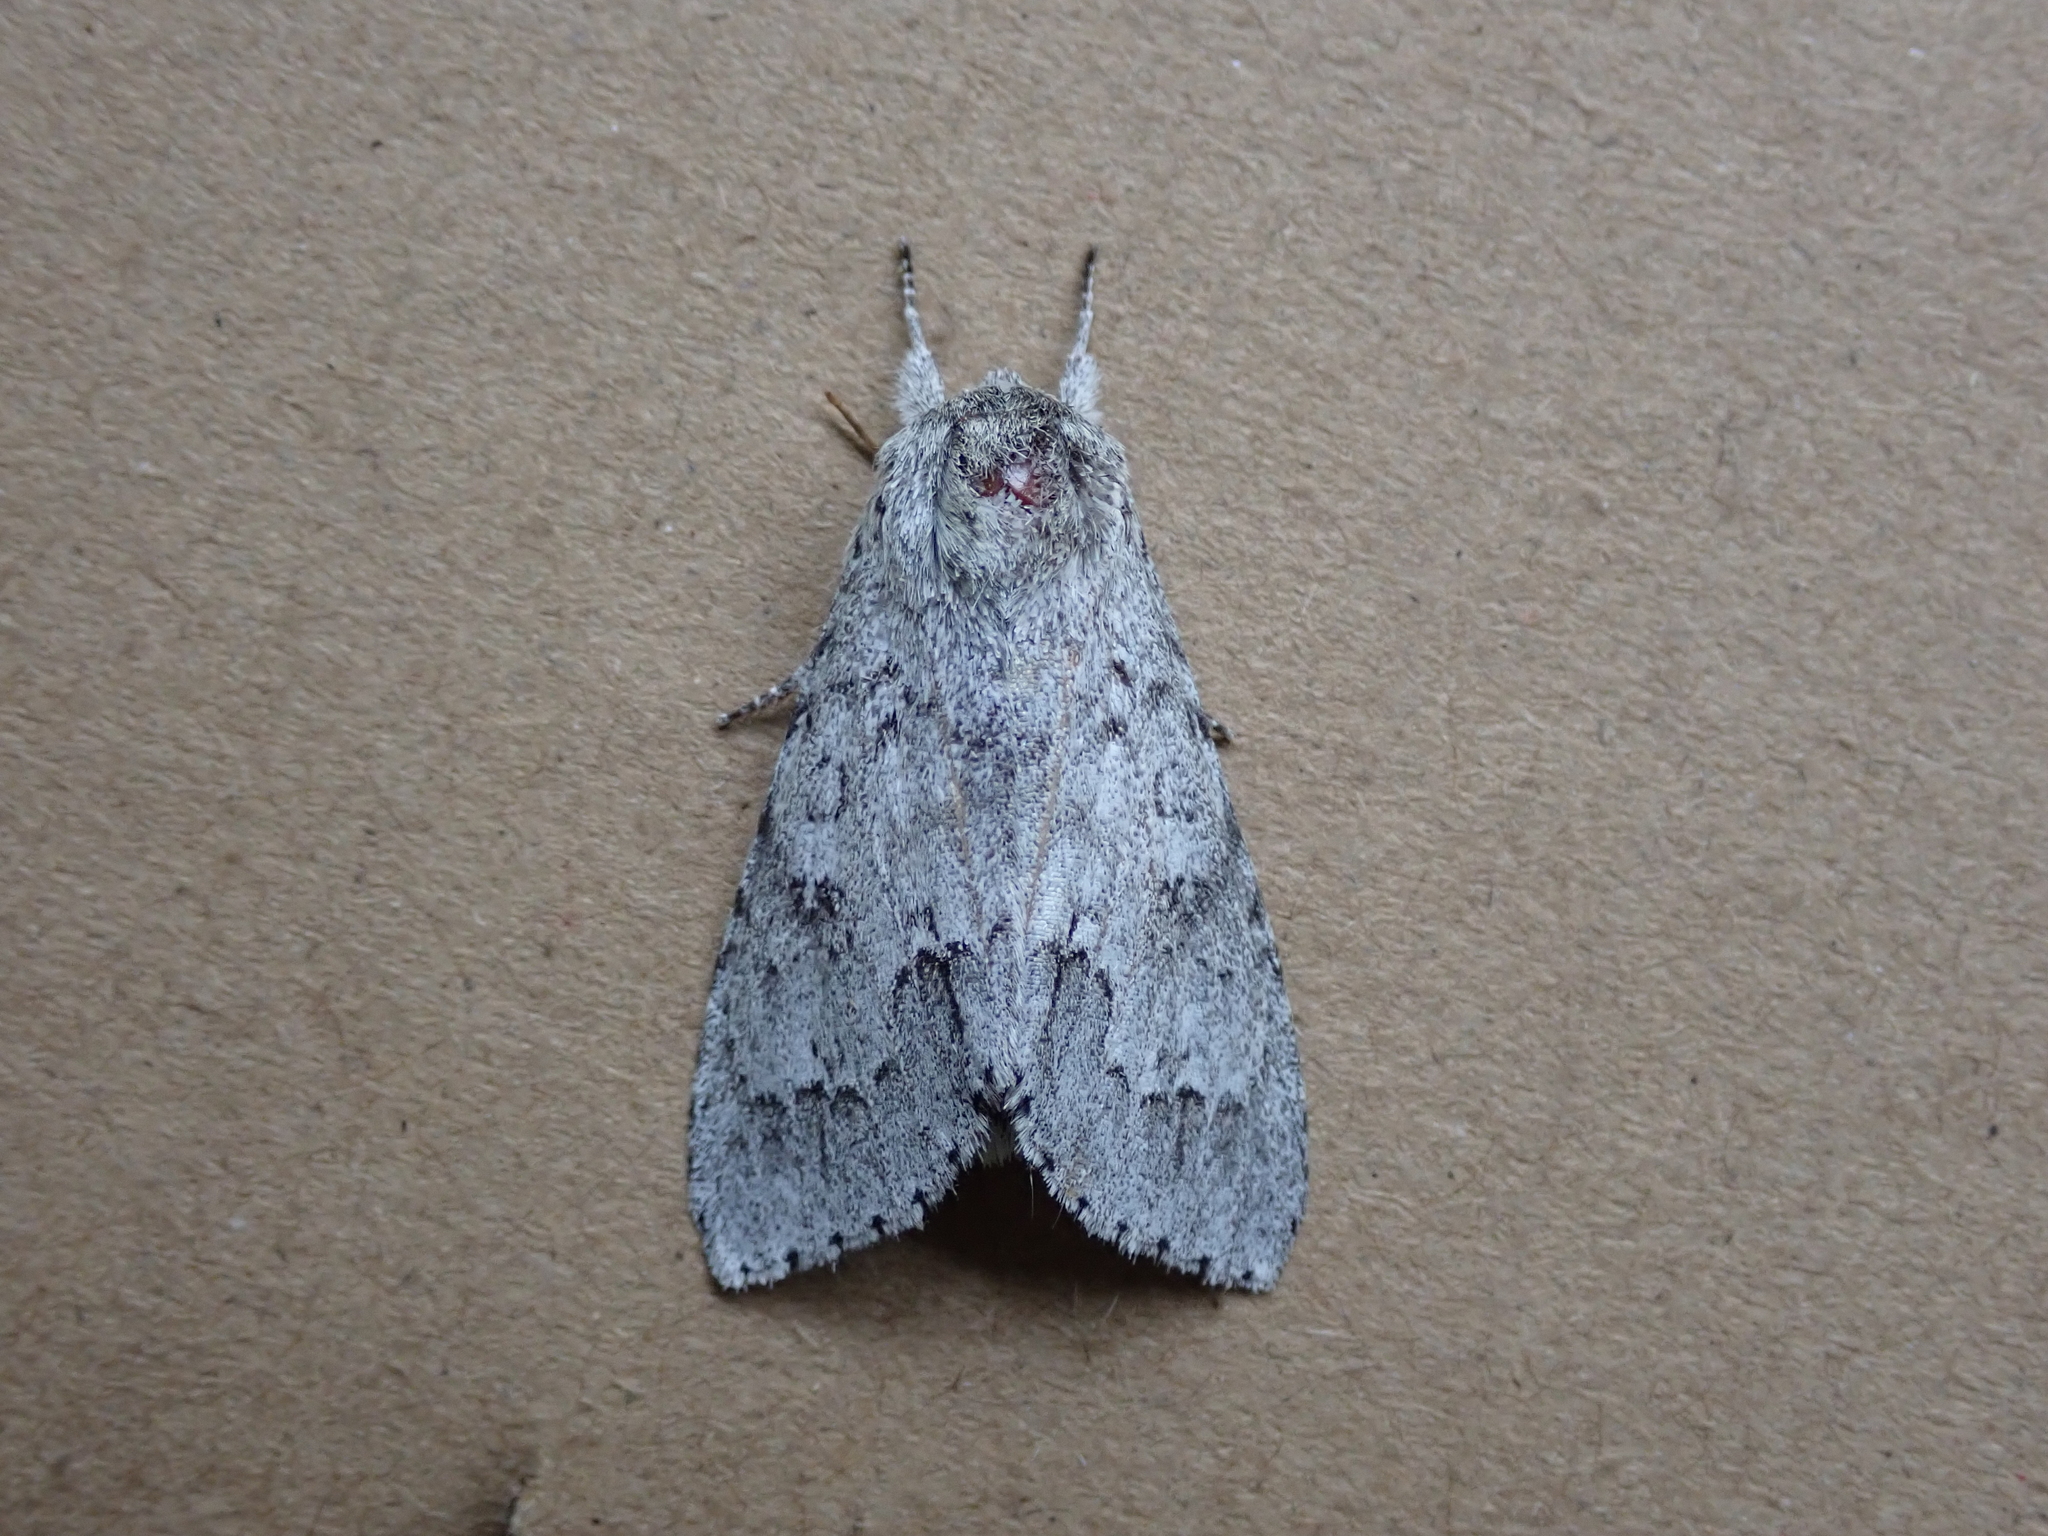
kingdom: Animalia
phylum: Arthropoda
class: Insecta
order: Lepidoptera
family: Noctuidae
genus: Acronicta
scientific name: Acronicta insita
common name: Large gray dagger
